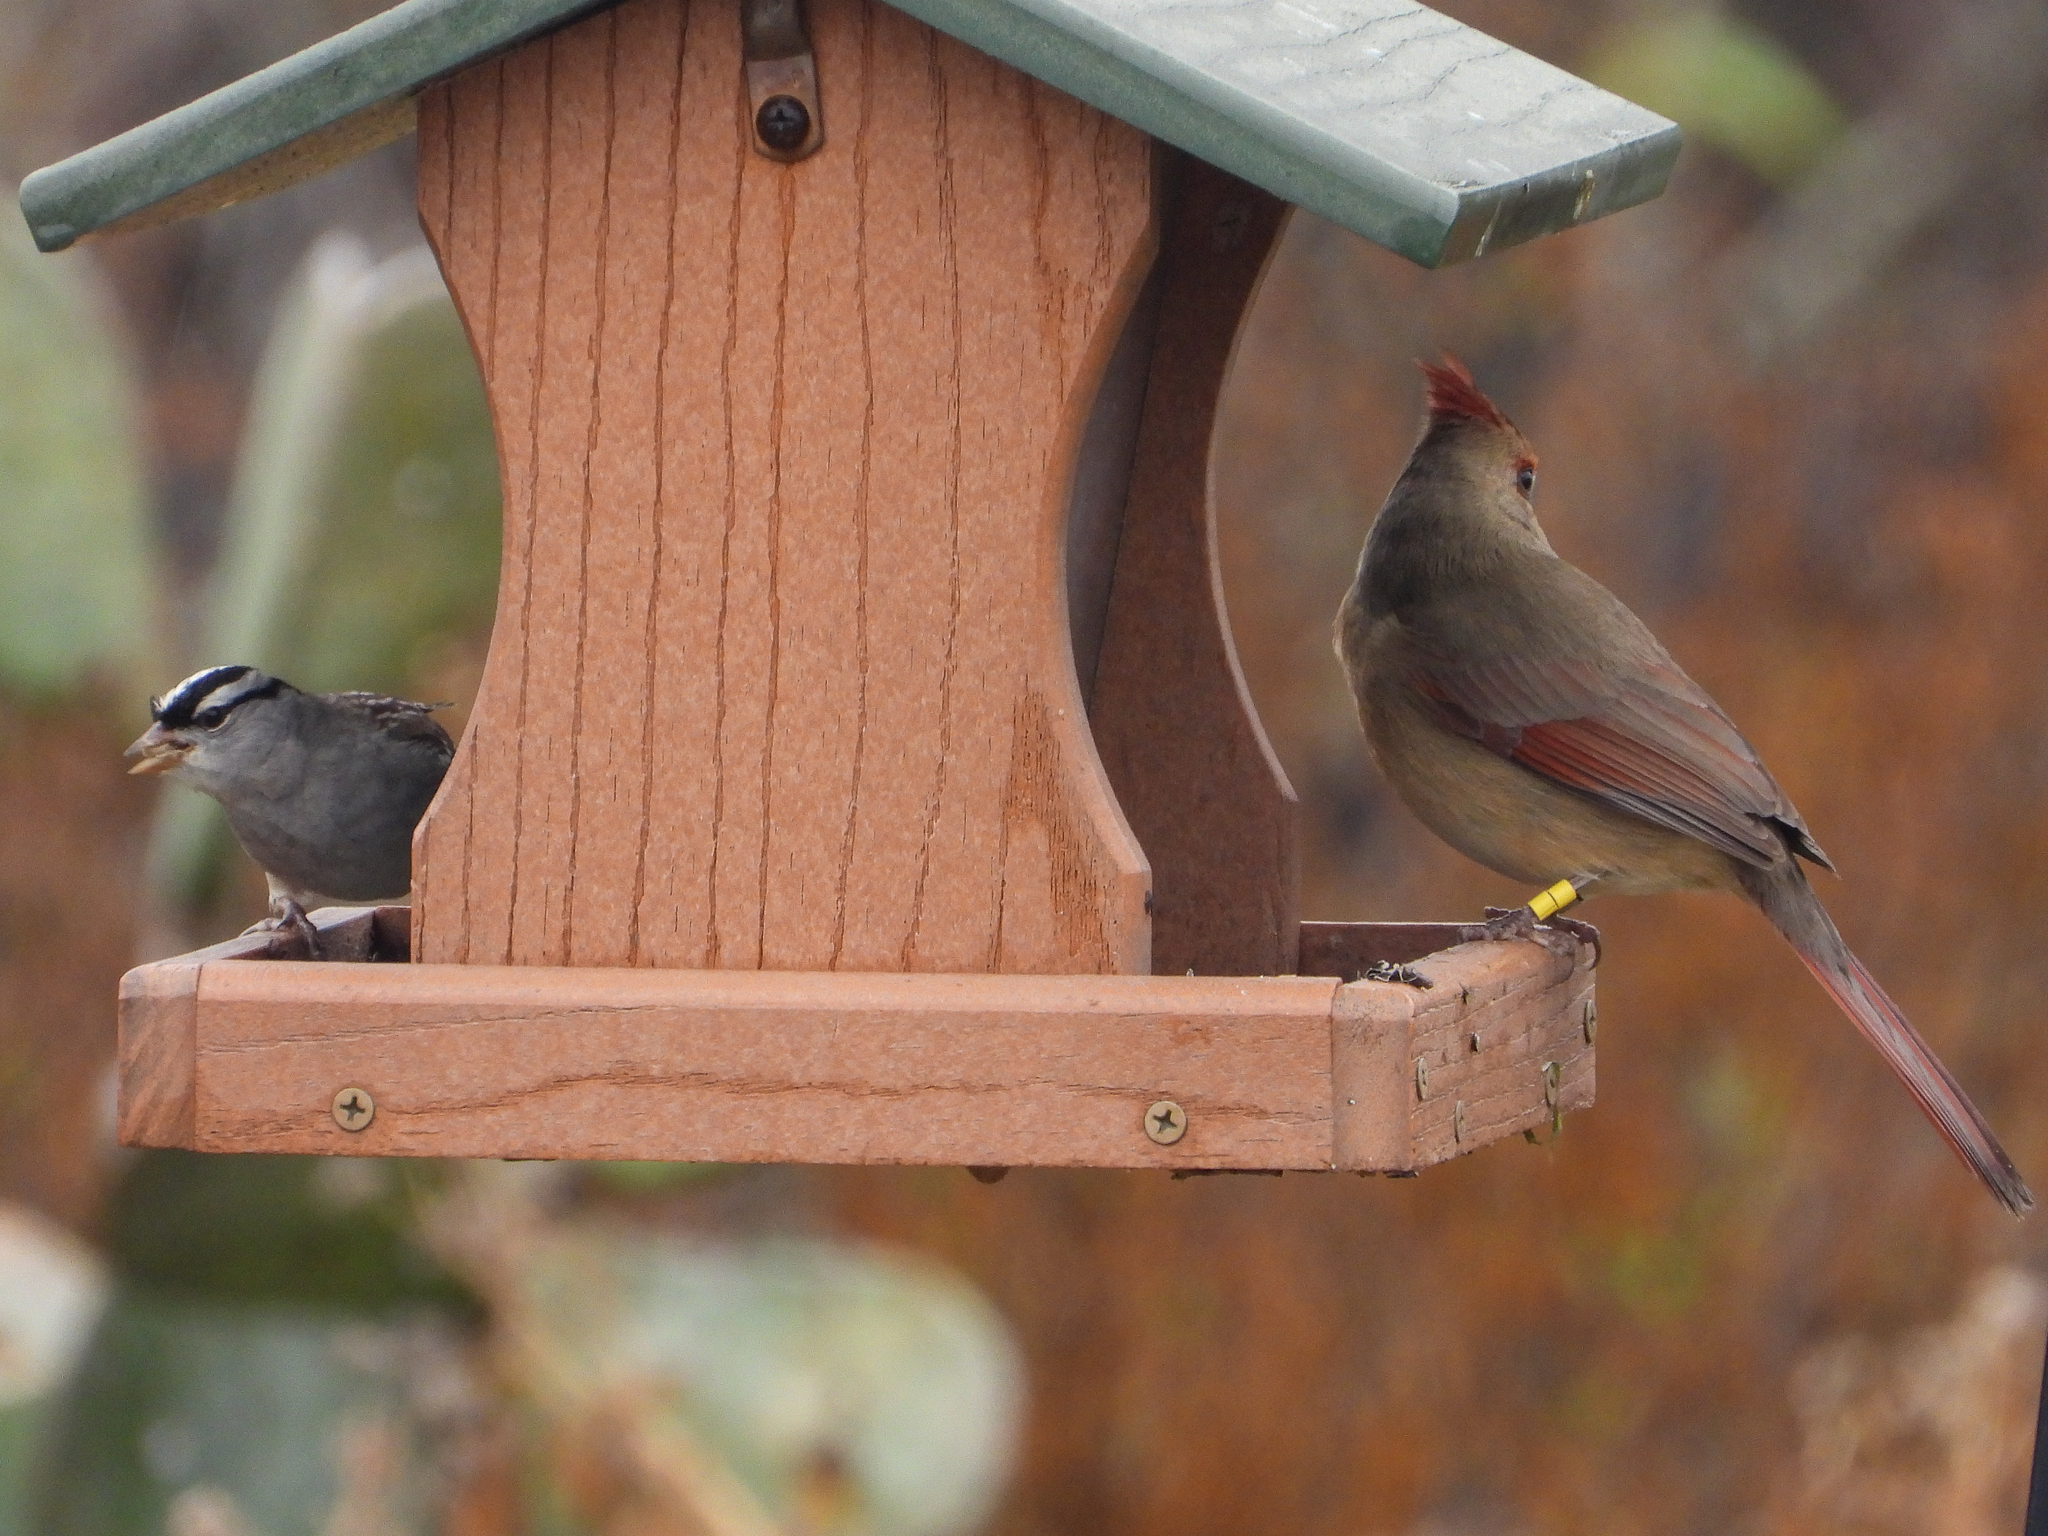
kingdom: Animalia
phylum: Chordata
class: Aves
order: Passeriformes
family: Passerellidae
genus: Zonotrichia
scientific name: Zonotrichia leucophrys
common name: White-crowned sparrow
